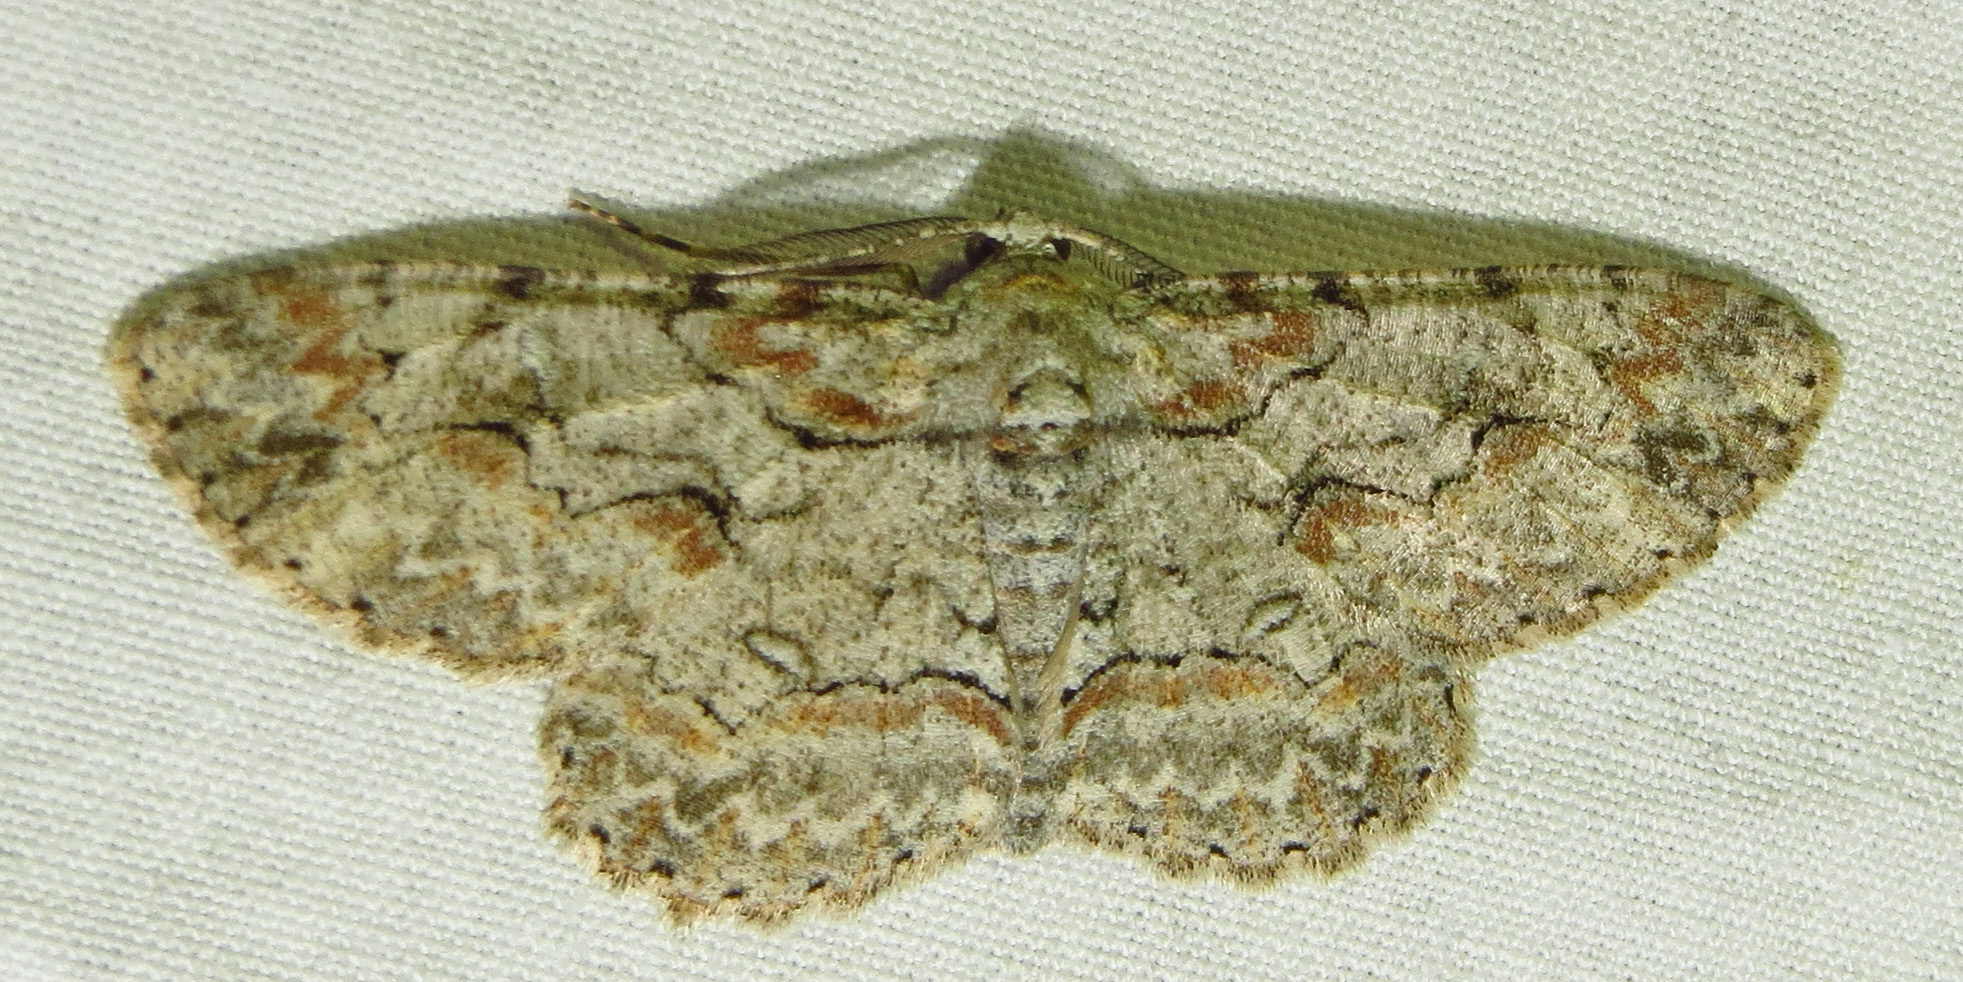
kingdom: Animalia
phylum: Arthropoda
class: Insecta
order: Lepidoptera
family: Geometridae
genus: Iridopsis
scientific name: Iridopsis defectaria
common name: Brown-shaded gray
